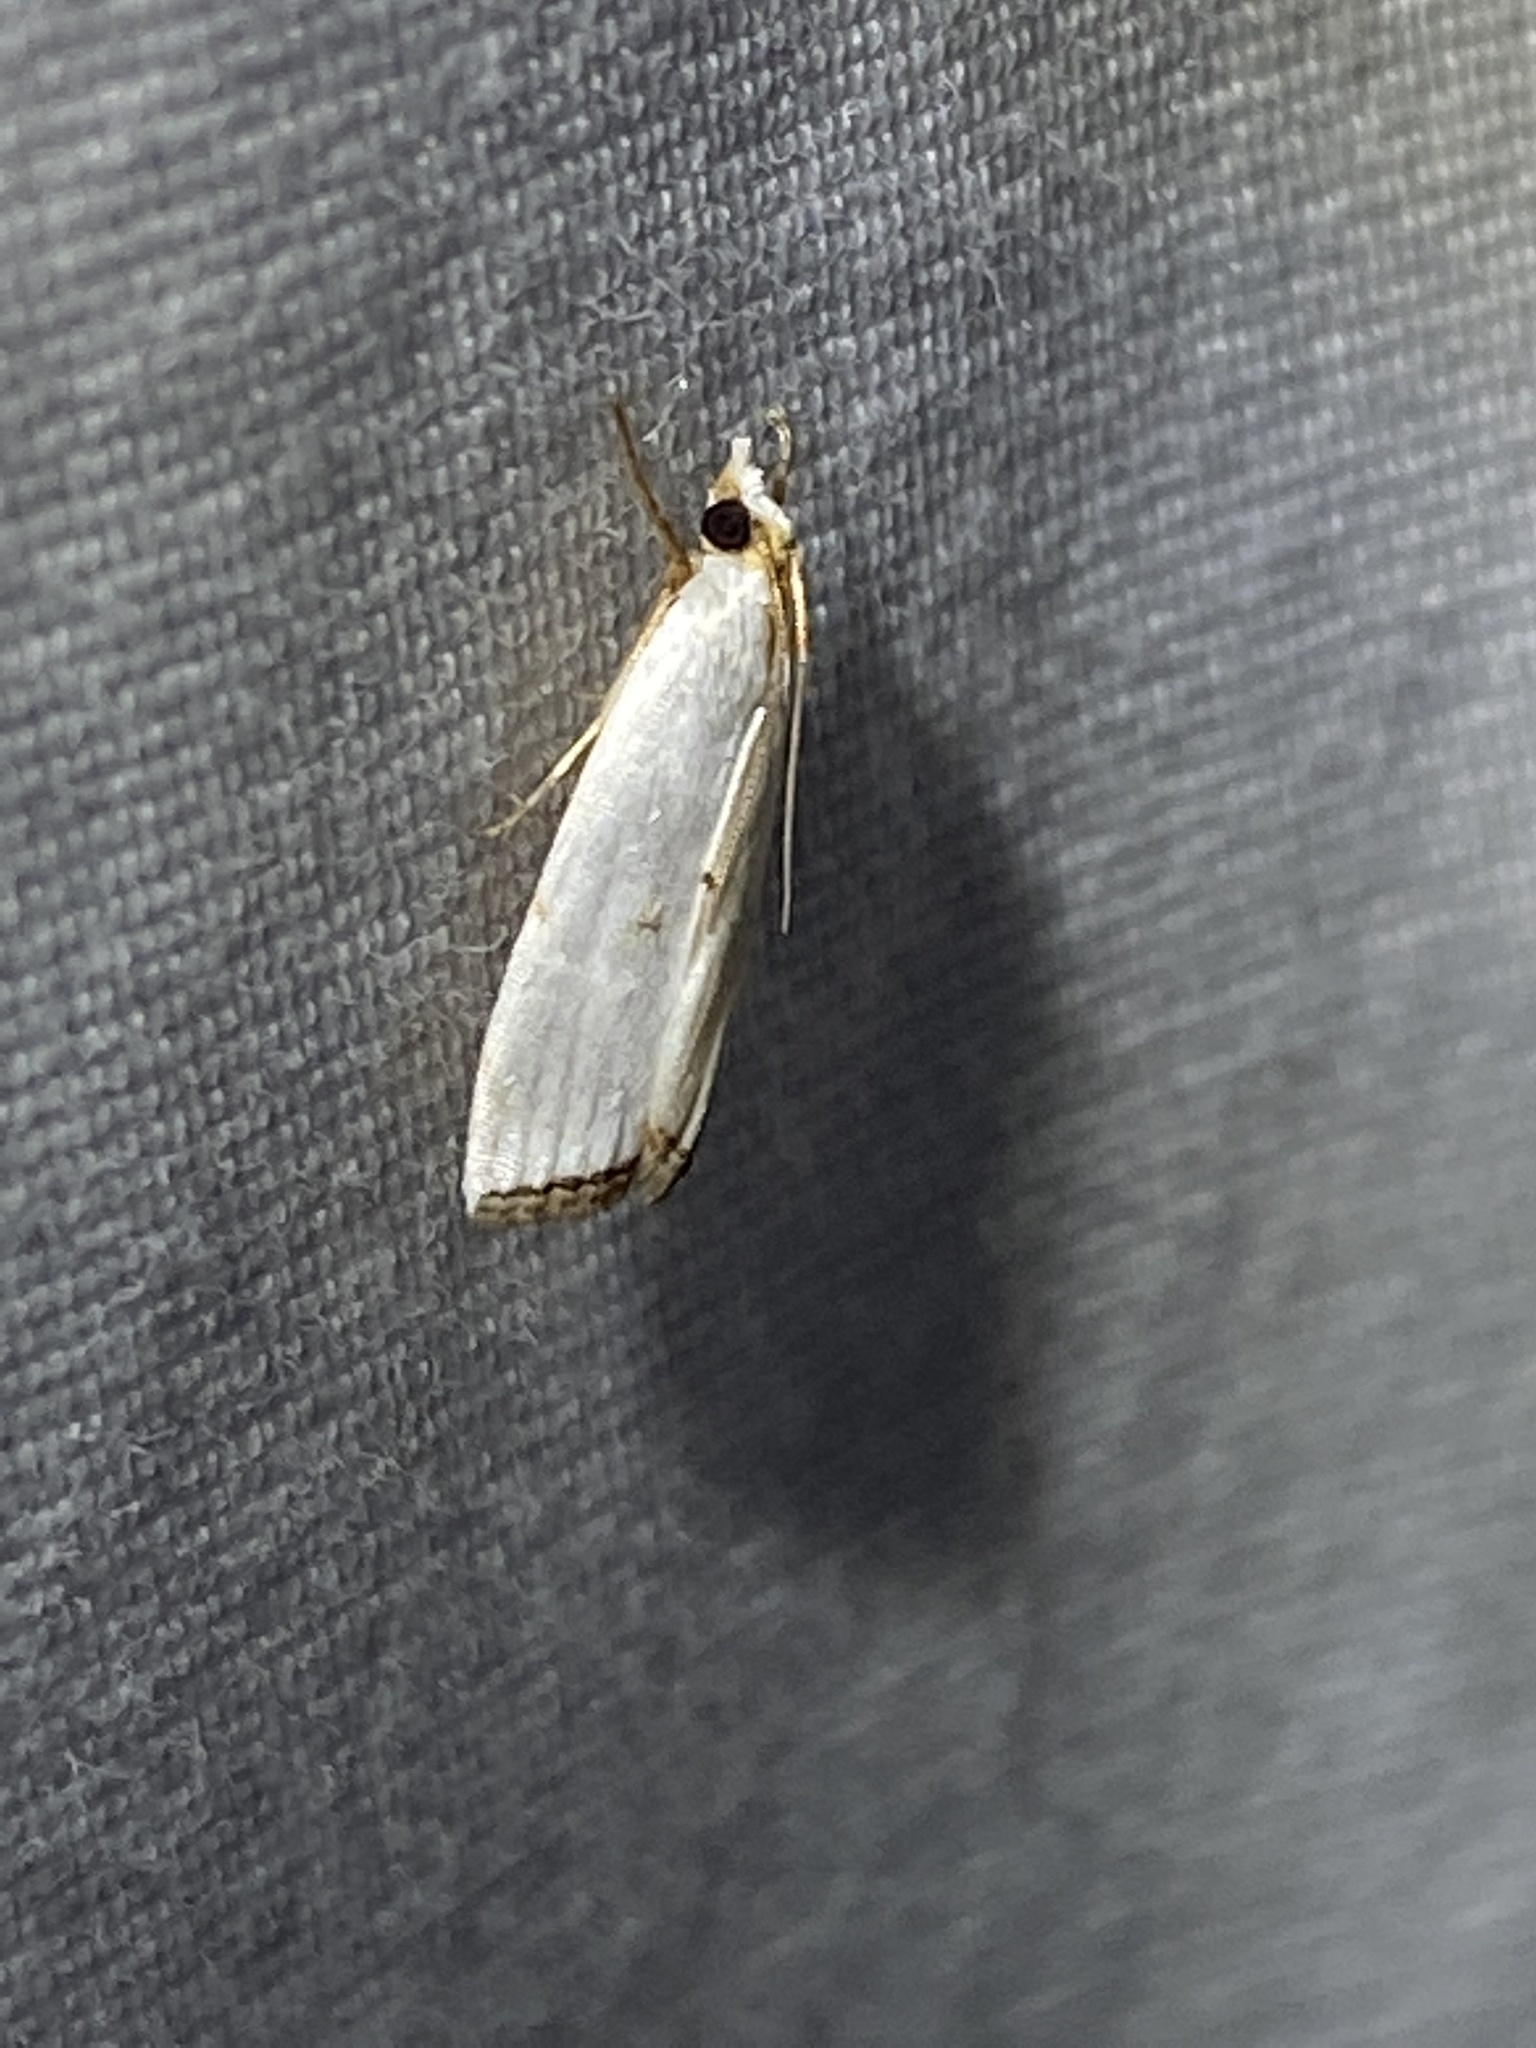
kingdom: Animalia
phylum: Arthropoda
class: Insecta
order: Lepidoptera
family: Crambidae
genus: Argyria
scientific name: Argyria pusillalis
